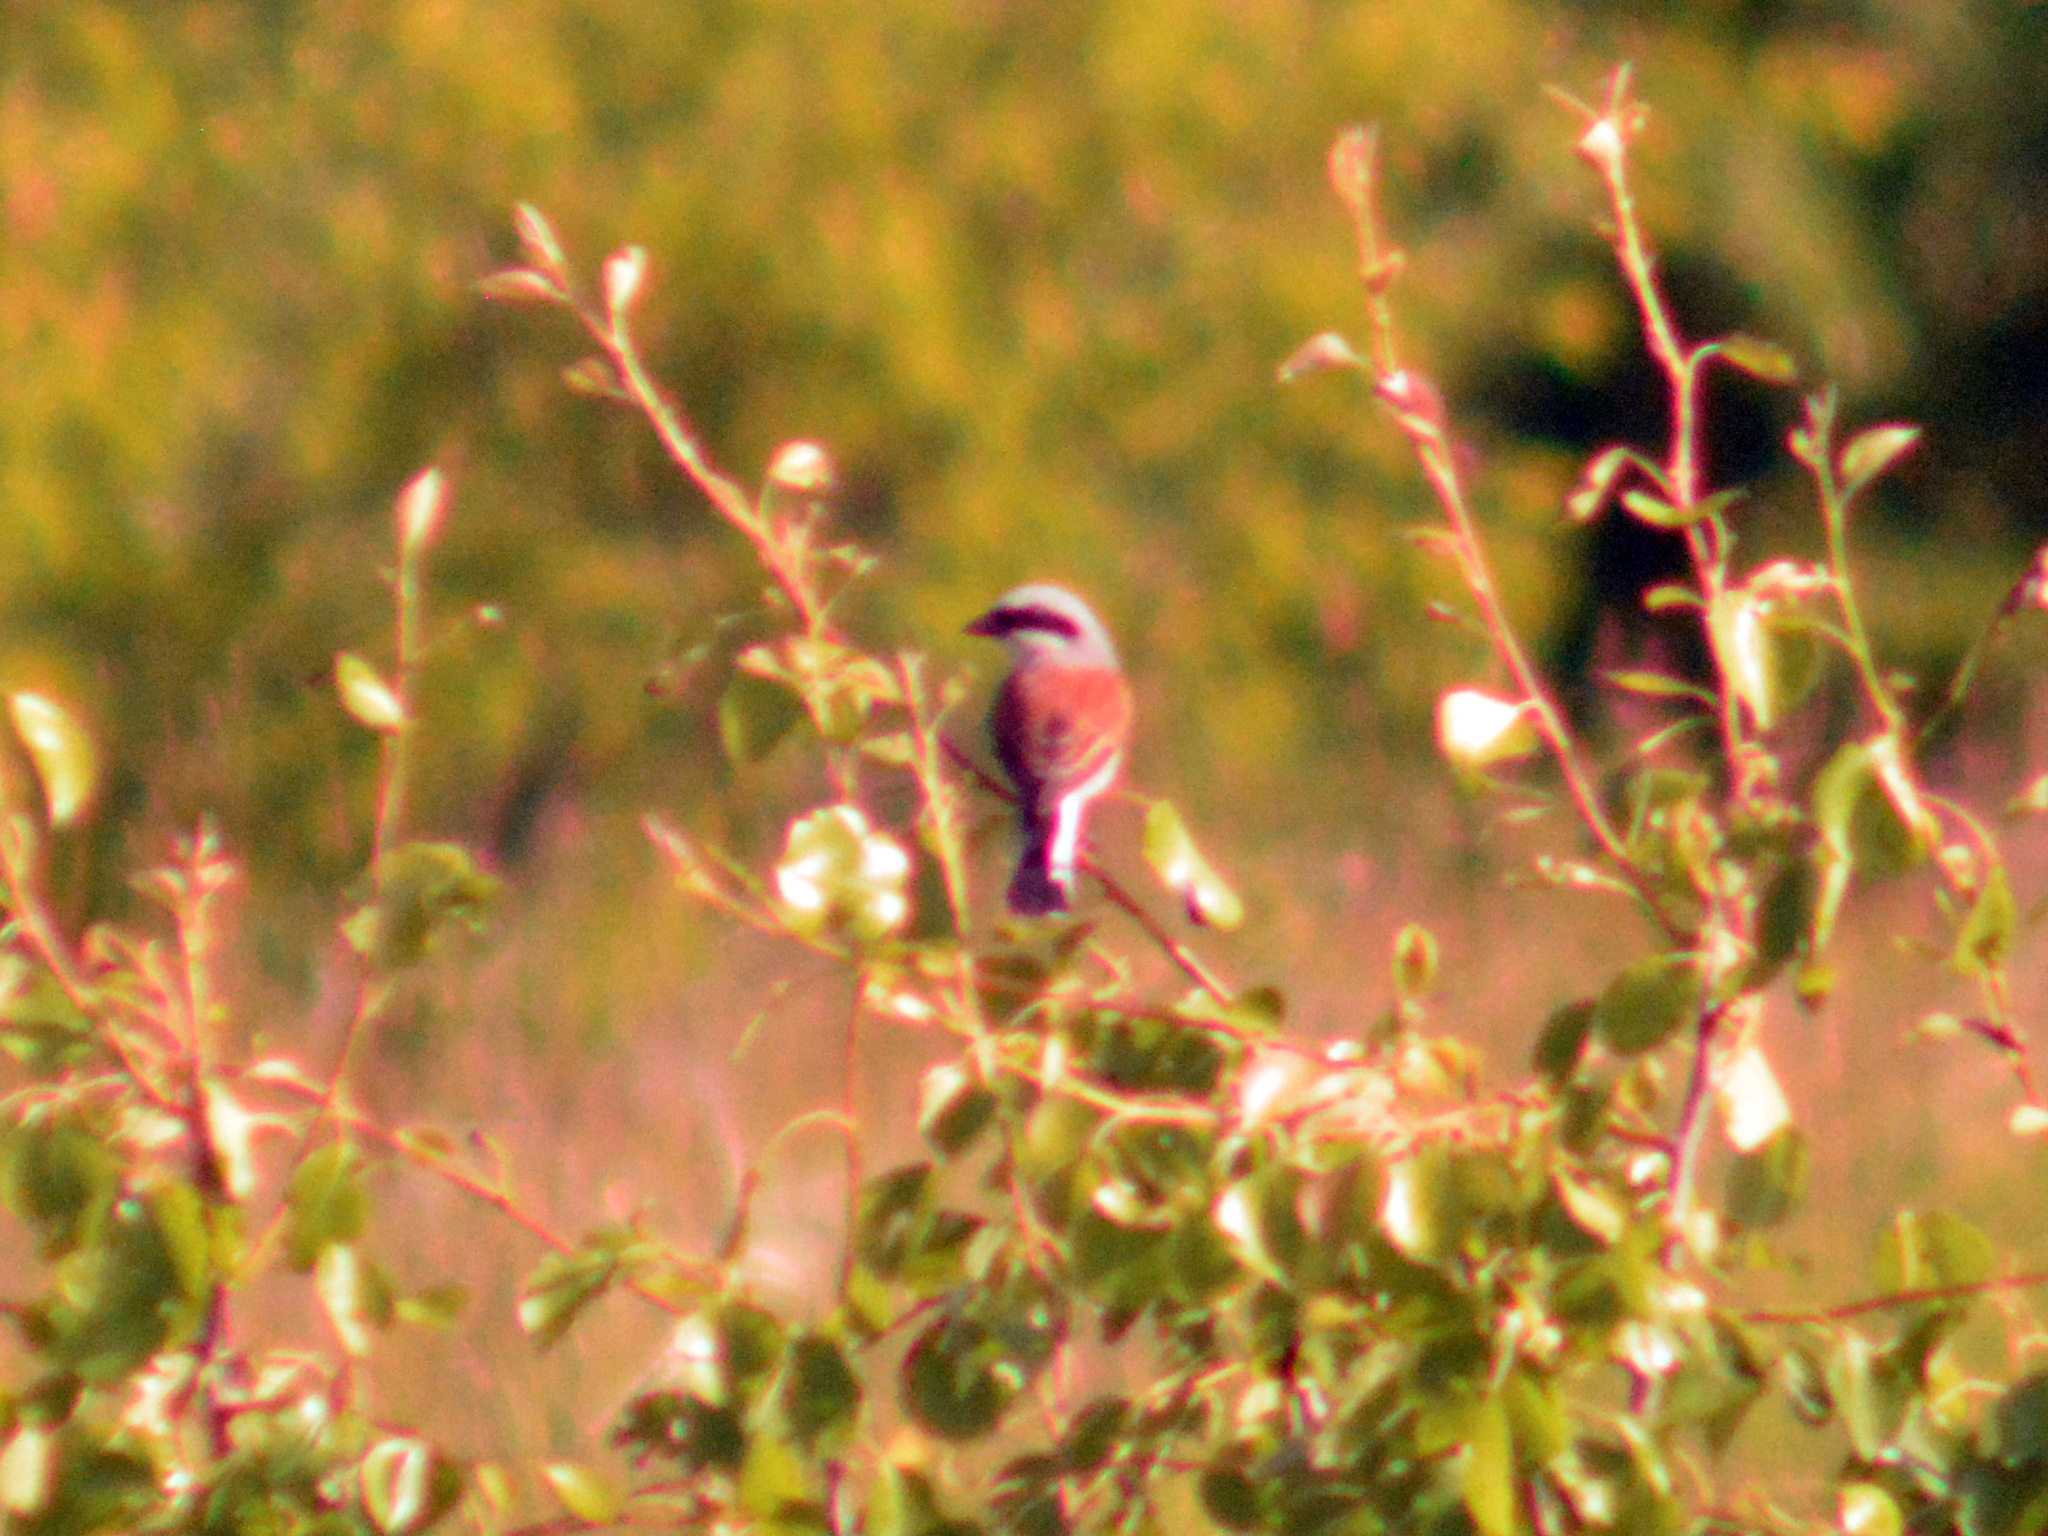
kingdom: Animalia
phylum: Chordata
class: Aves
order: Passeriformes
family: Laniidae
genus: Lanius
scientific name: Lanius collurio
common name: Red-backed shrike
